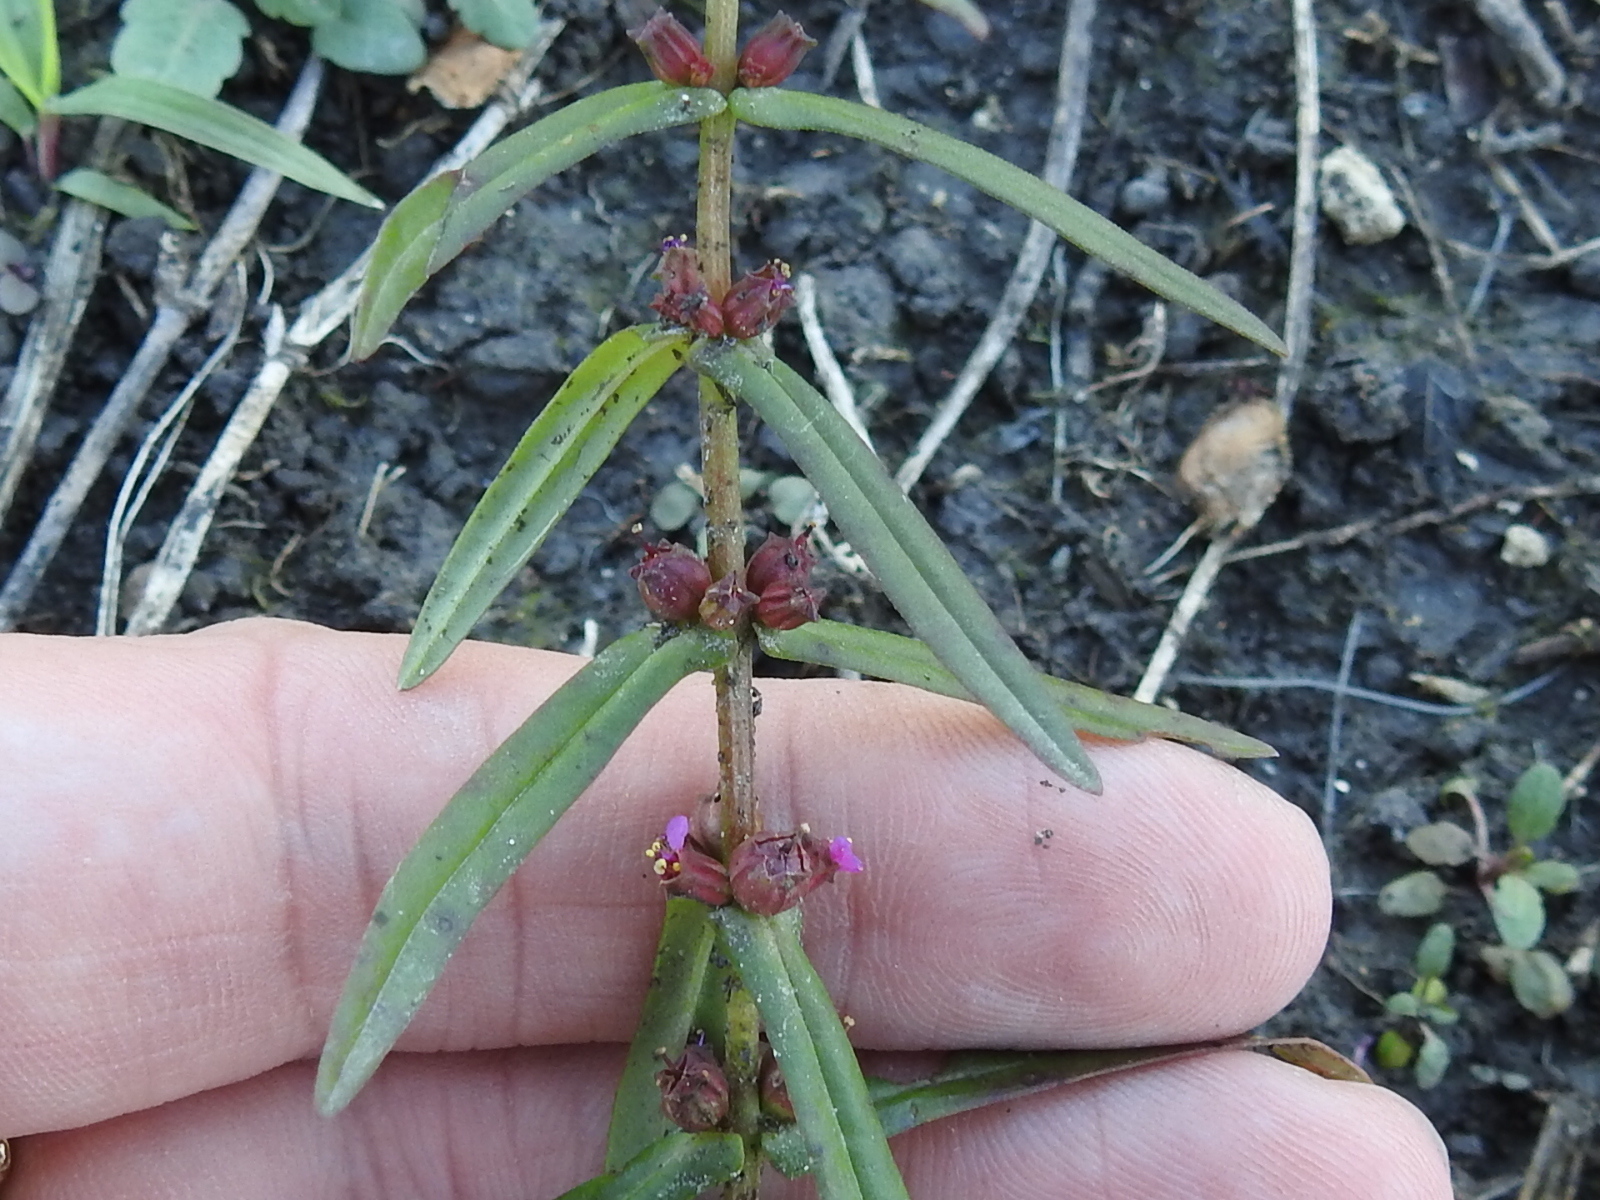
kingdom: Plantae
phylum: Tracheophyta
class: Magnoliopsida
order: Myrtales
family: Lythraceae
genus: Ammannia
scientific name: Ammannia coccinea
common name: Valley redstem
